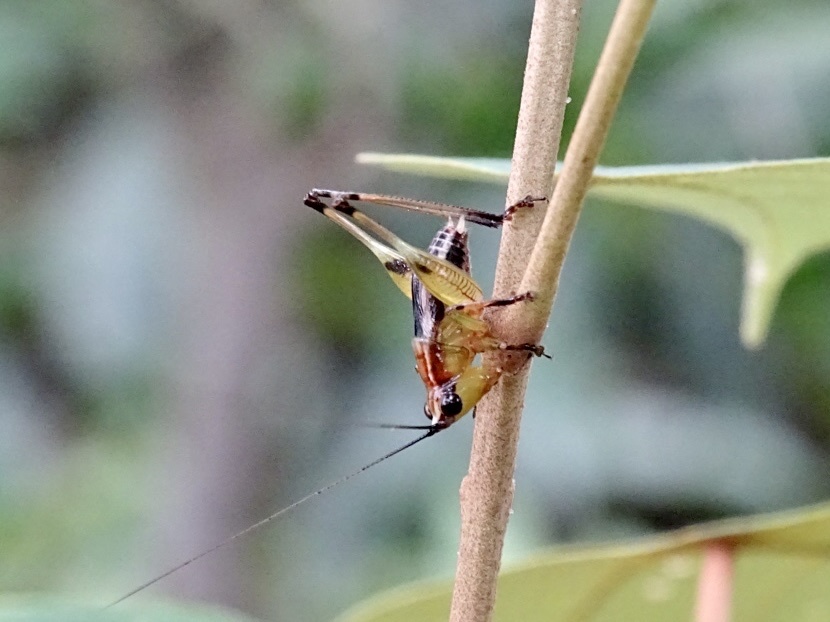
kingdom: Animalia
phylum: Arthropoda
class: Insecta
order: Orthoptera
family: Tettigoniidae
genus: Conocephalus
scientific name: Conocephalus melaenus
